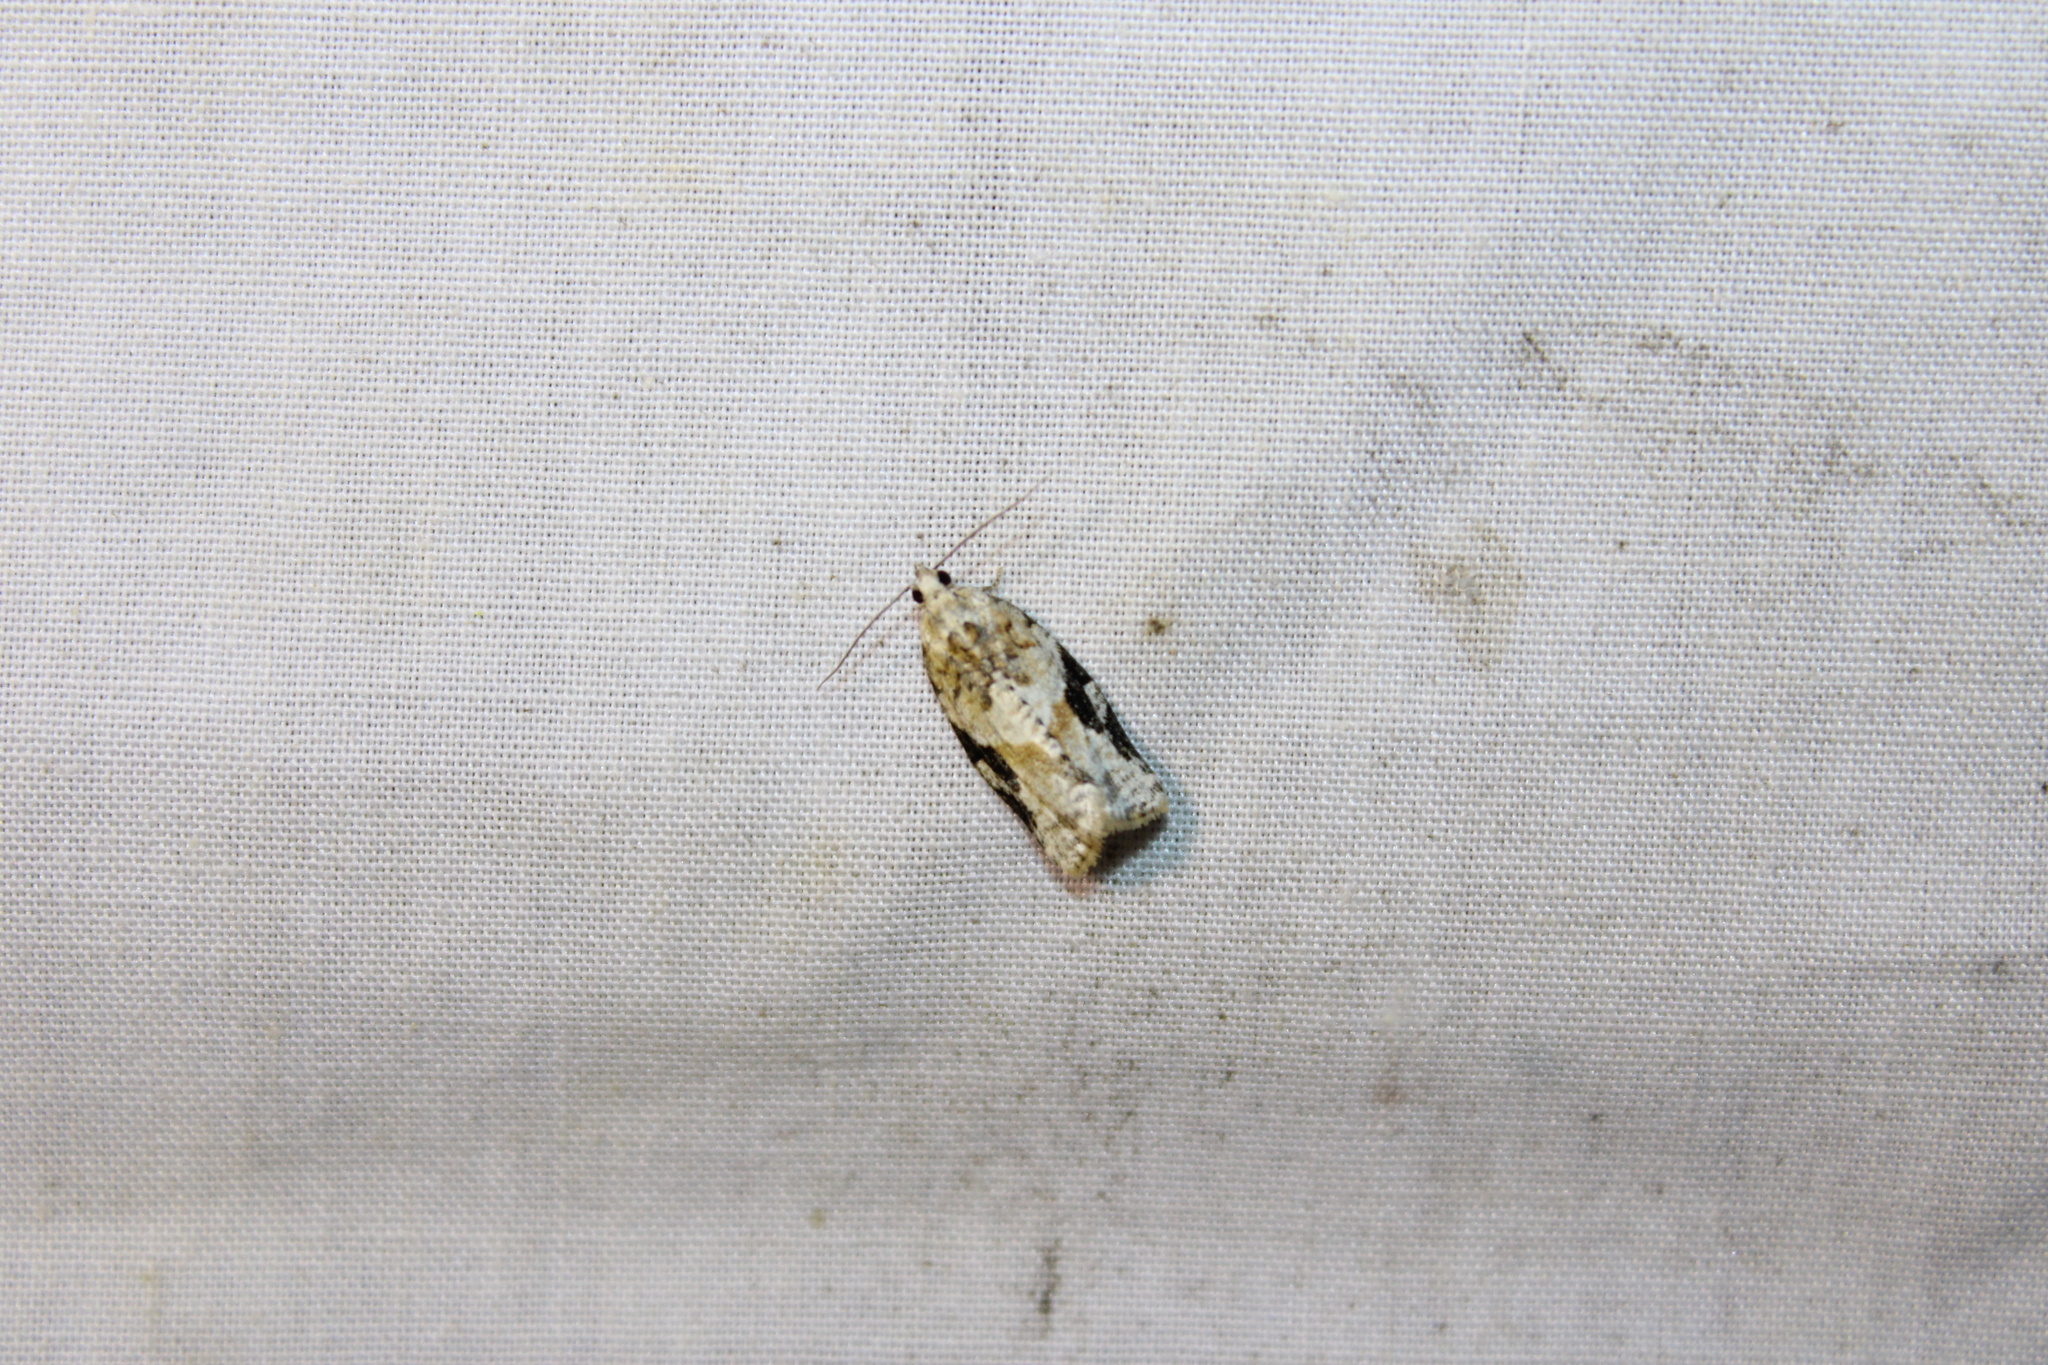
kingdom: Animalia
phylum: Arthropoda
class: Insecta
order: Lepidoptera
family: Tortricidae
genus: Argyrotaenia
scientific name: Argyrotaenia mariana
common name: Gray-banded leafroller moth
